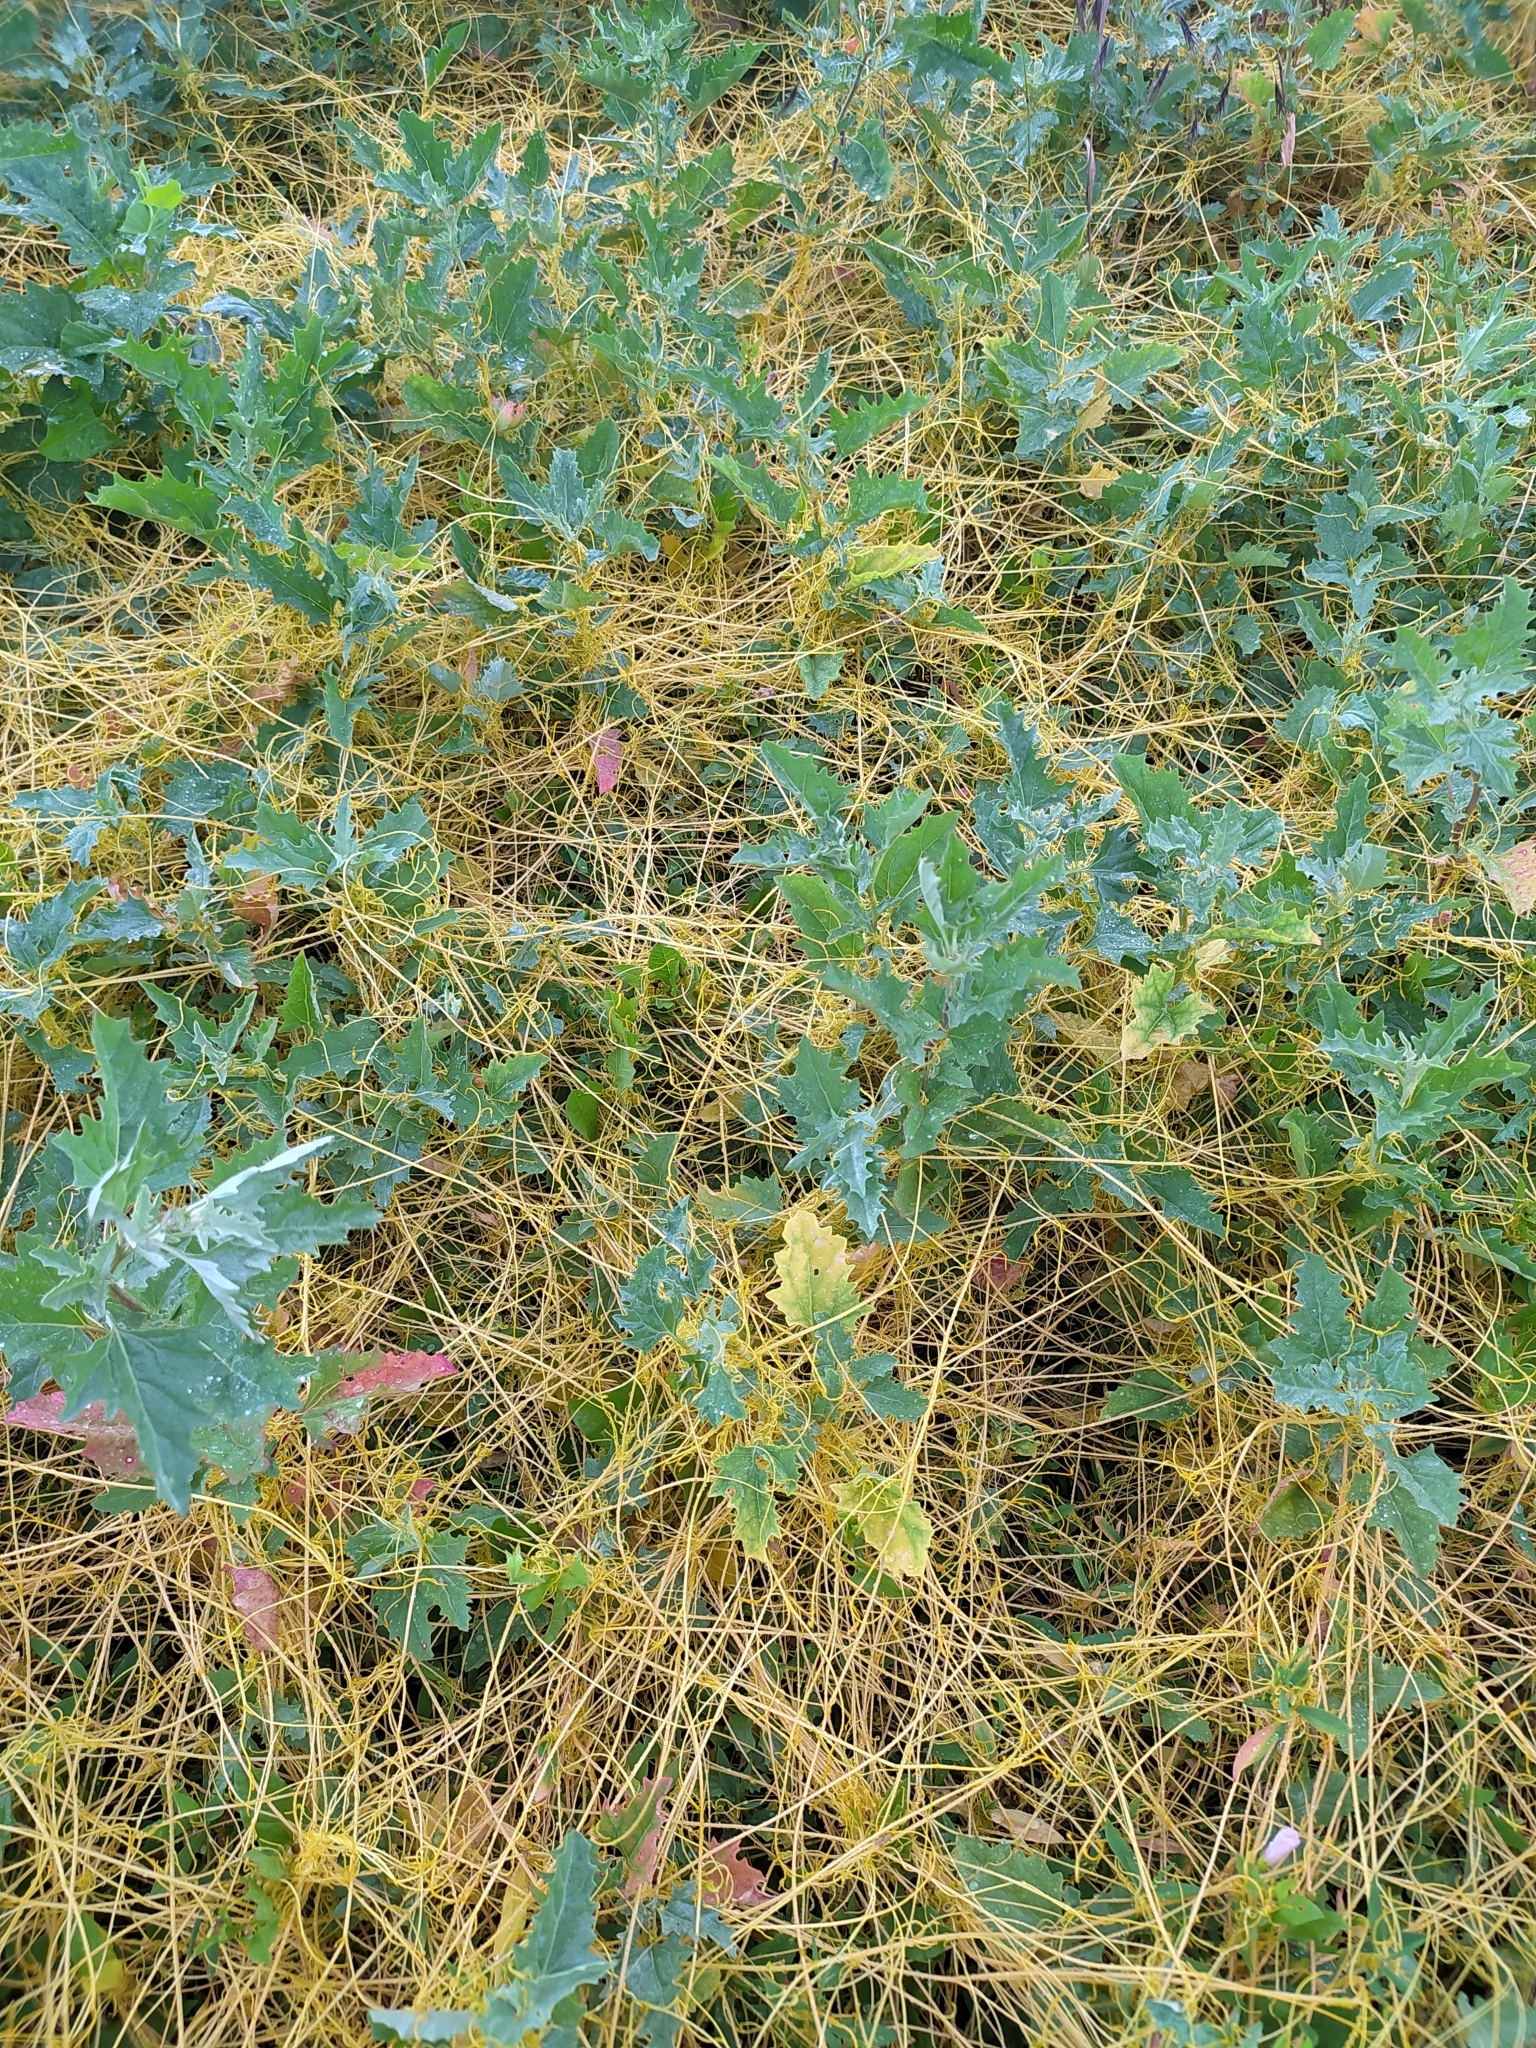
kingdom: Plantae
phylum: Tracheophyta
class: Magnoliopsida
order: Solanales
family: Convolvulaceae
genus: Cuscuta
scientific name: Cuscuta campestris
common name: Yellow dodder
